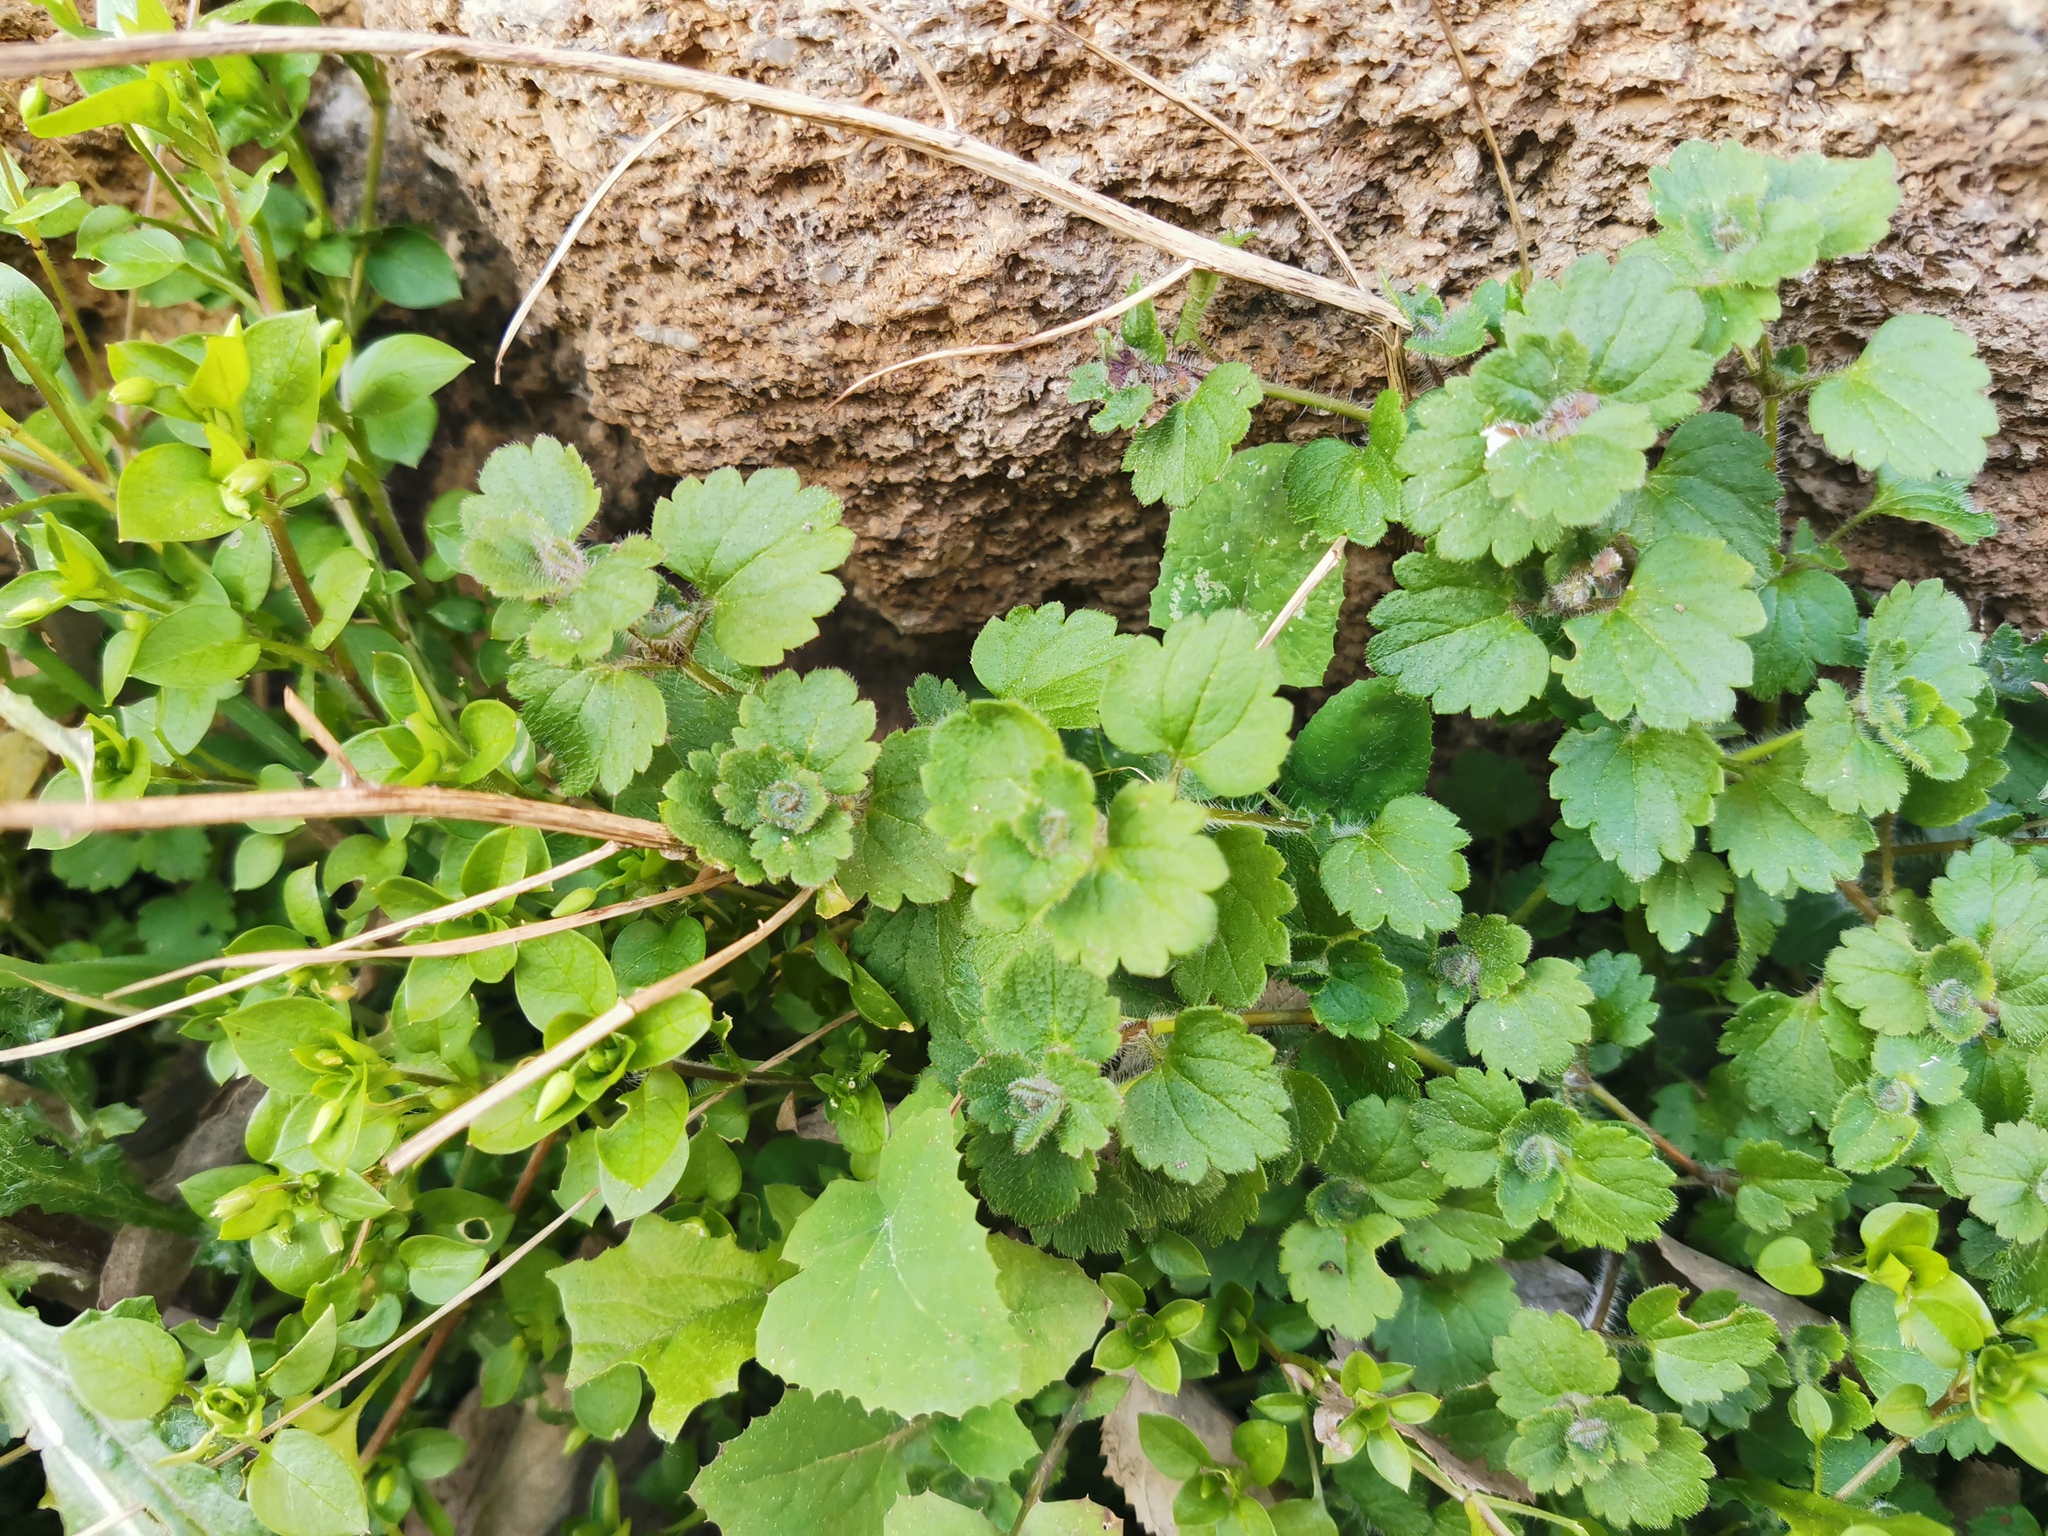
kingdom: Plantae
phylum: Tracheophyta
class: Magnoliopsida
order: Lamiales
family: Plantaginaceae
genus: Veronica
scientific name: Veronica cymbalaria
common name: Pale speedwell
